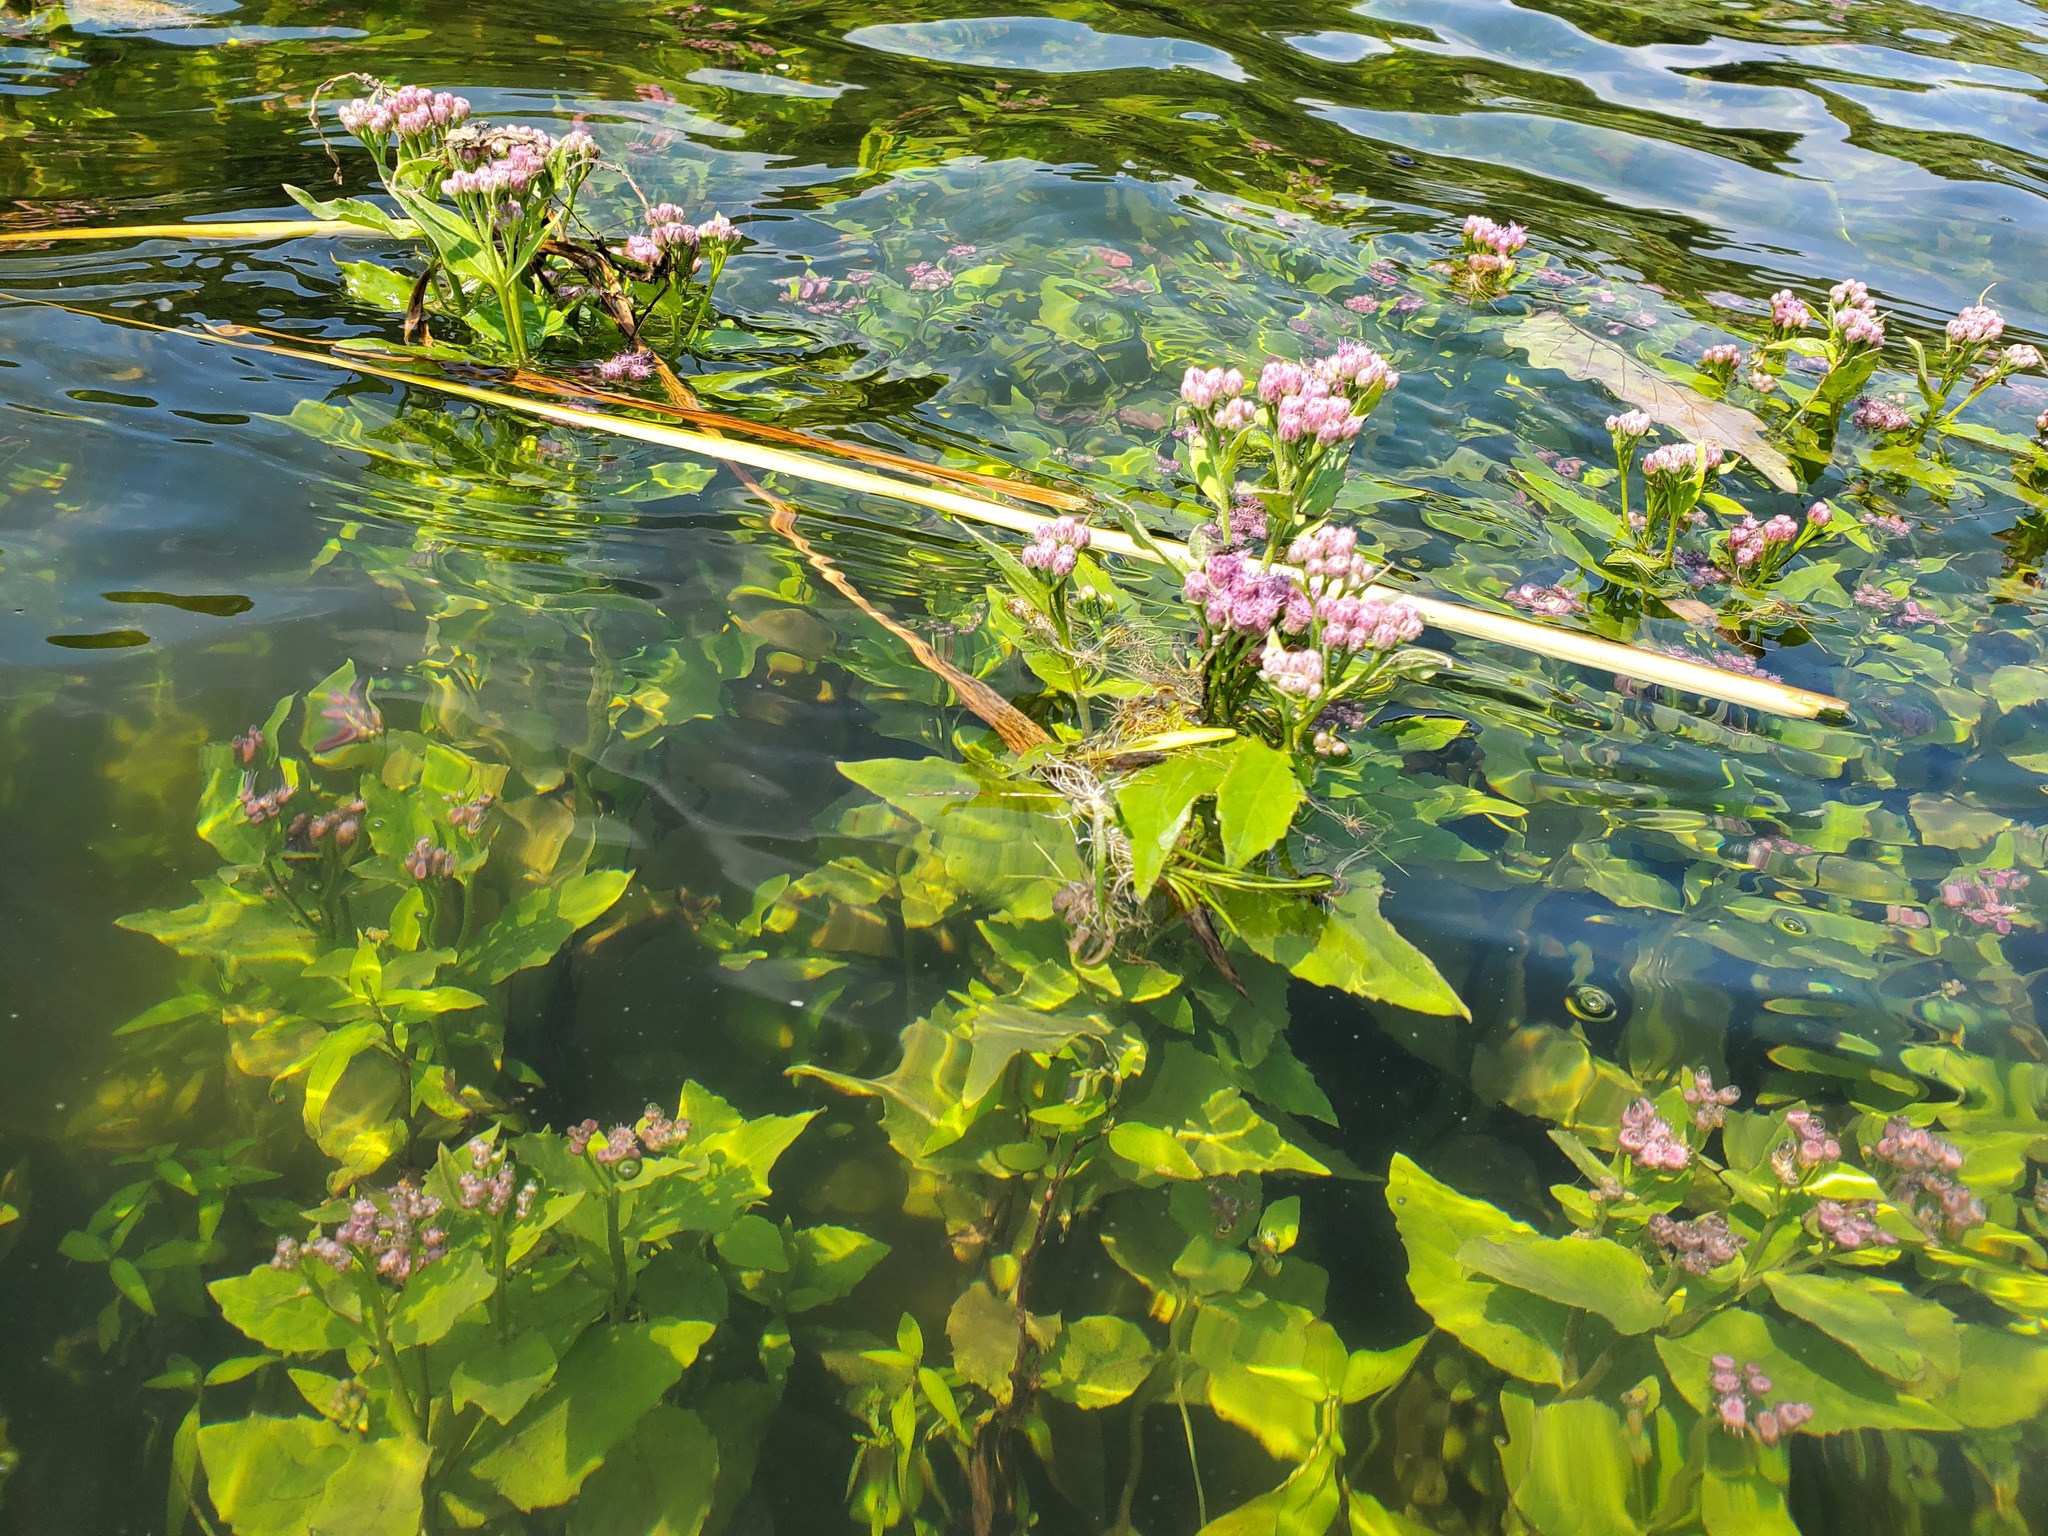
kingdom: Plantae
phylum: Tracheophyta
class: Magnoliopsida
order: Asterales
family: Asteraceae
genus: Pluchea
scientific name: Pluchea odorata
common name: Saltmarsh fleabane
